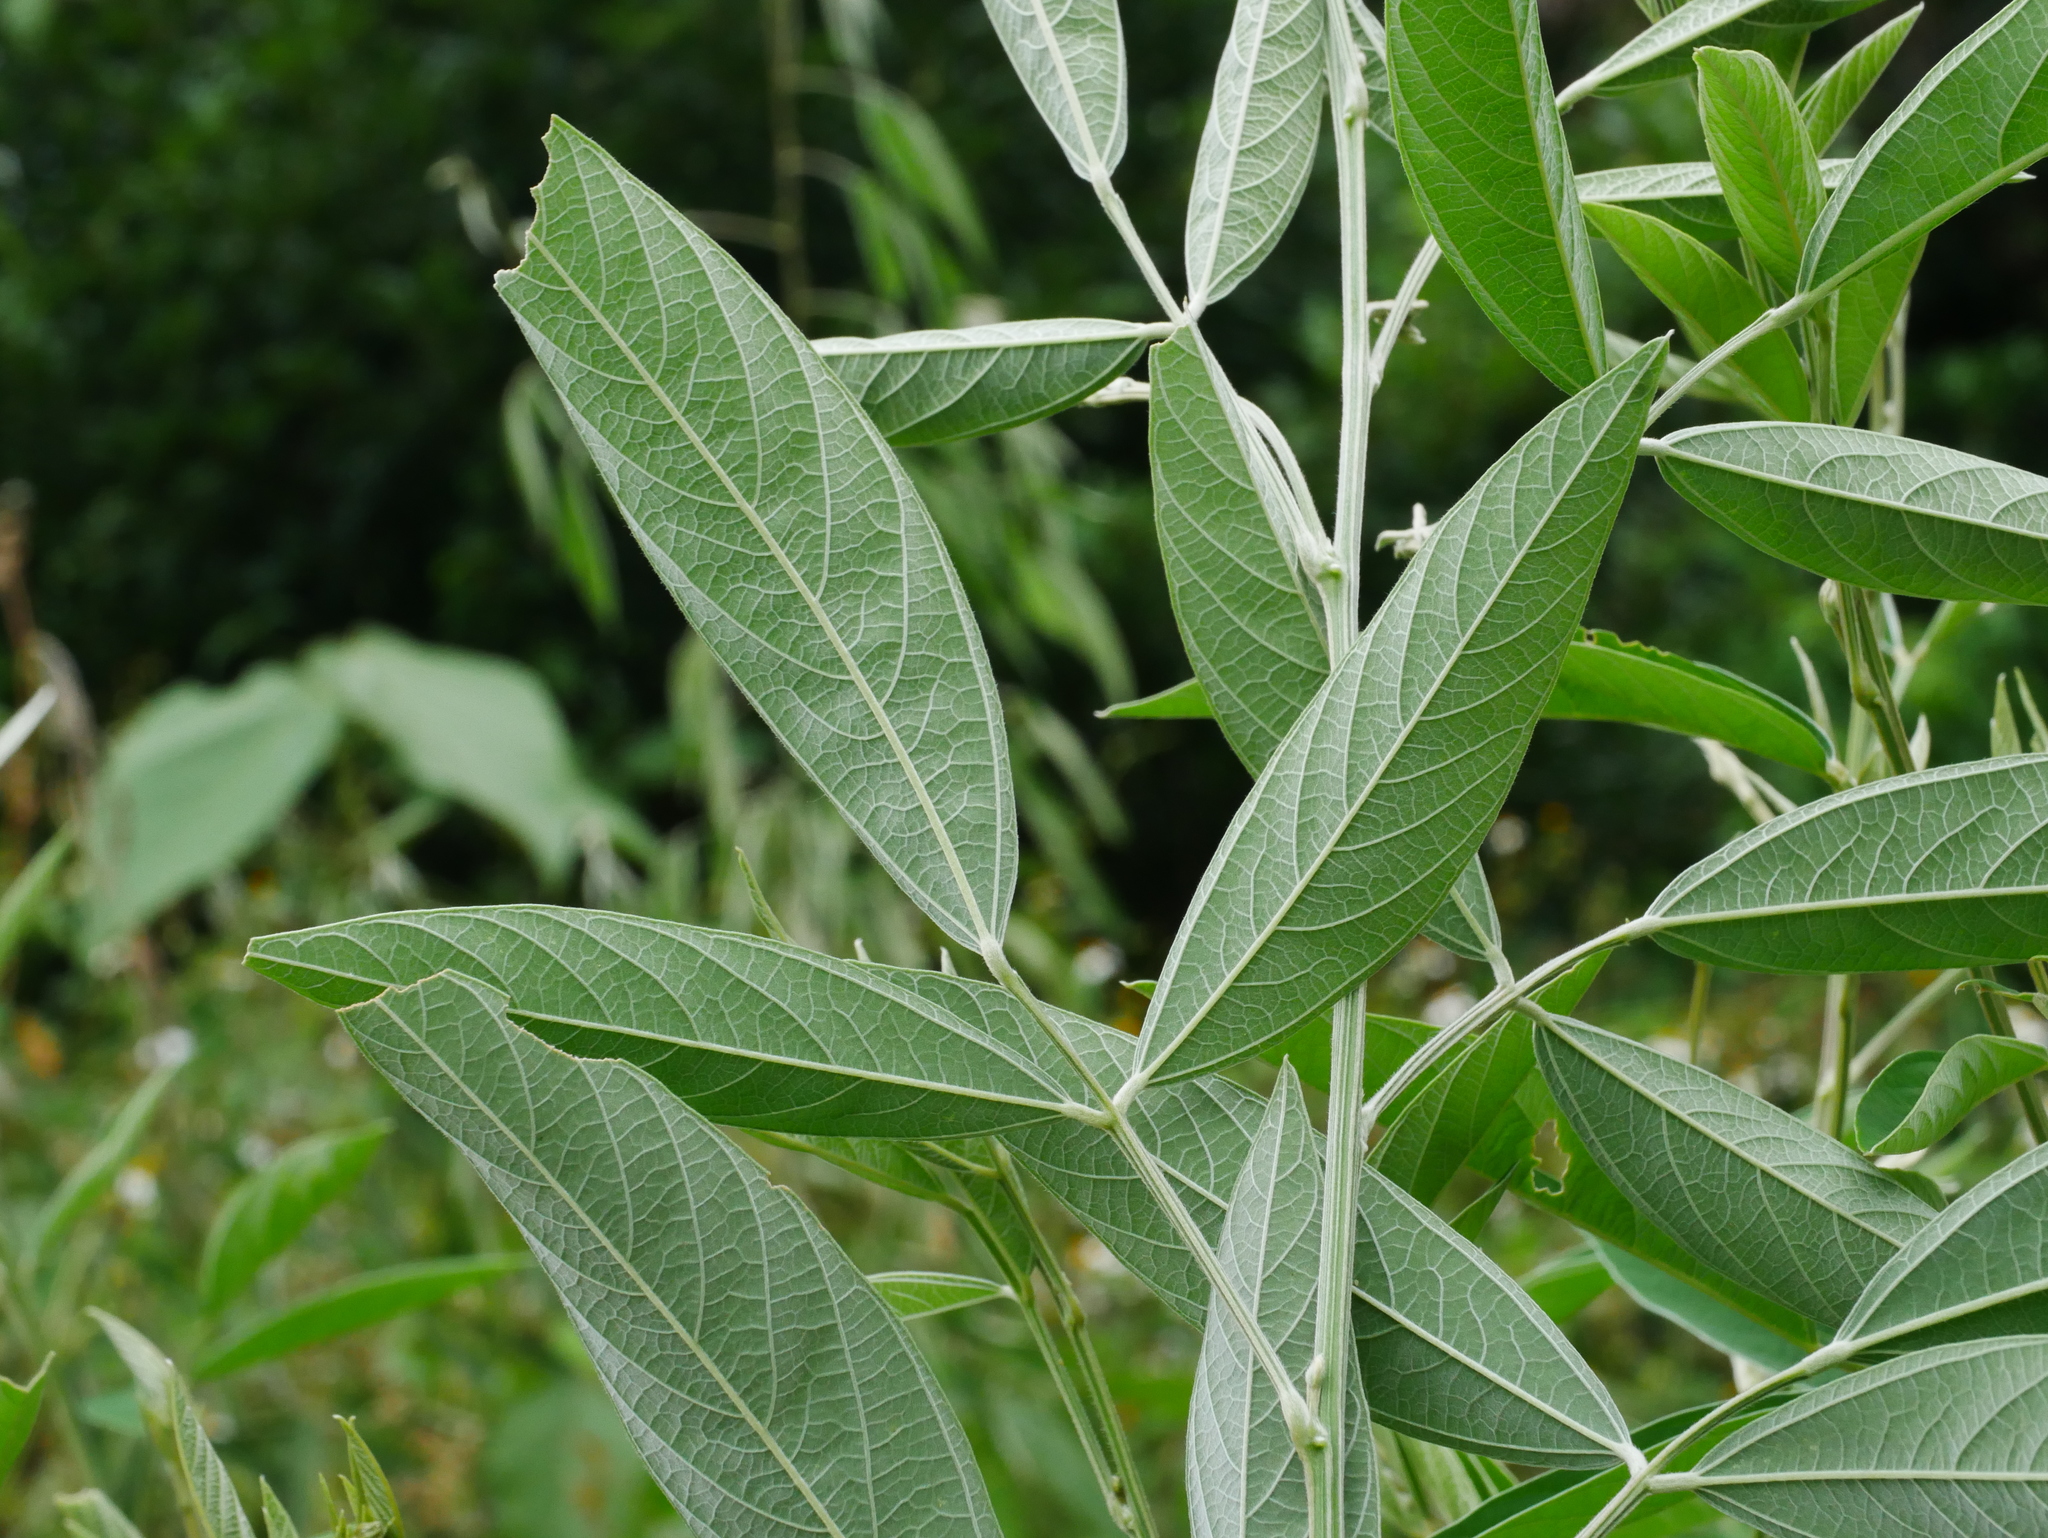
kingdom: Plantae
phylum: Tracheophyta
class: Magnoliopsida
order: Fabales
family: Fabaceae
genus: Cajanus
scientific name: Cajanus cajan
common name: Pigeonpea
